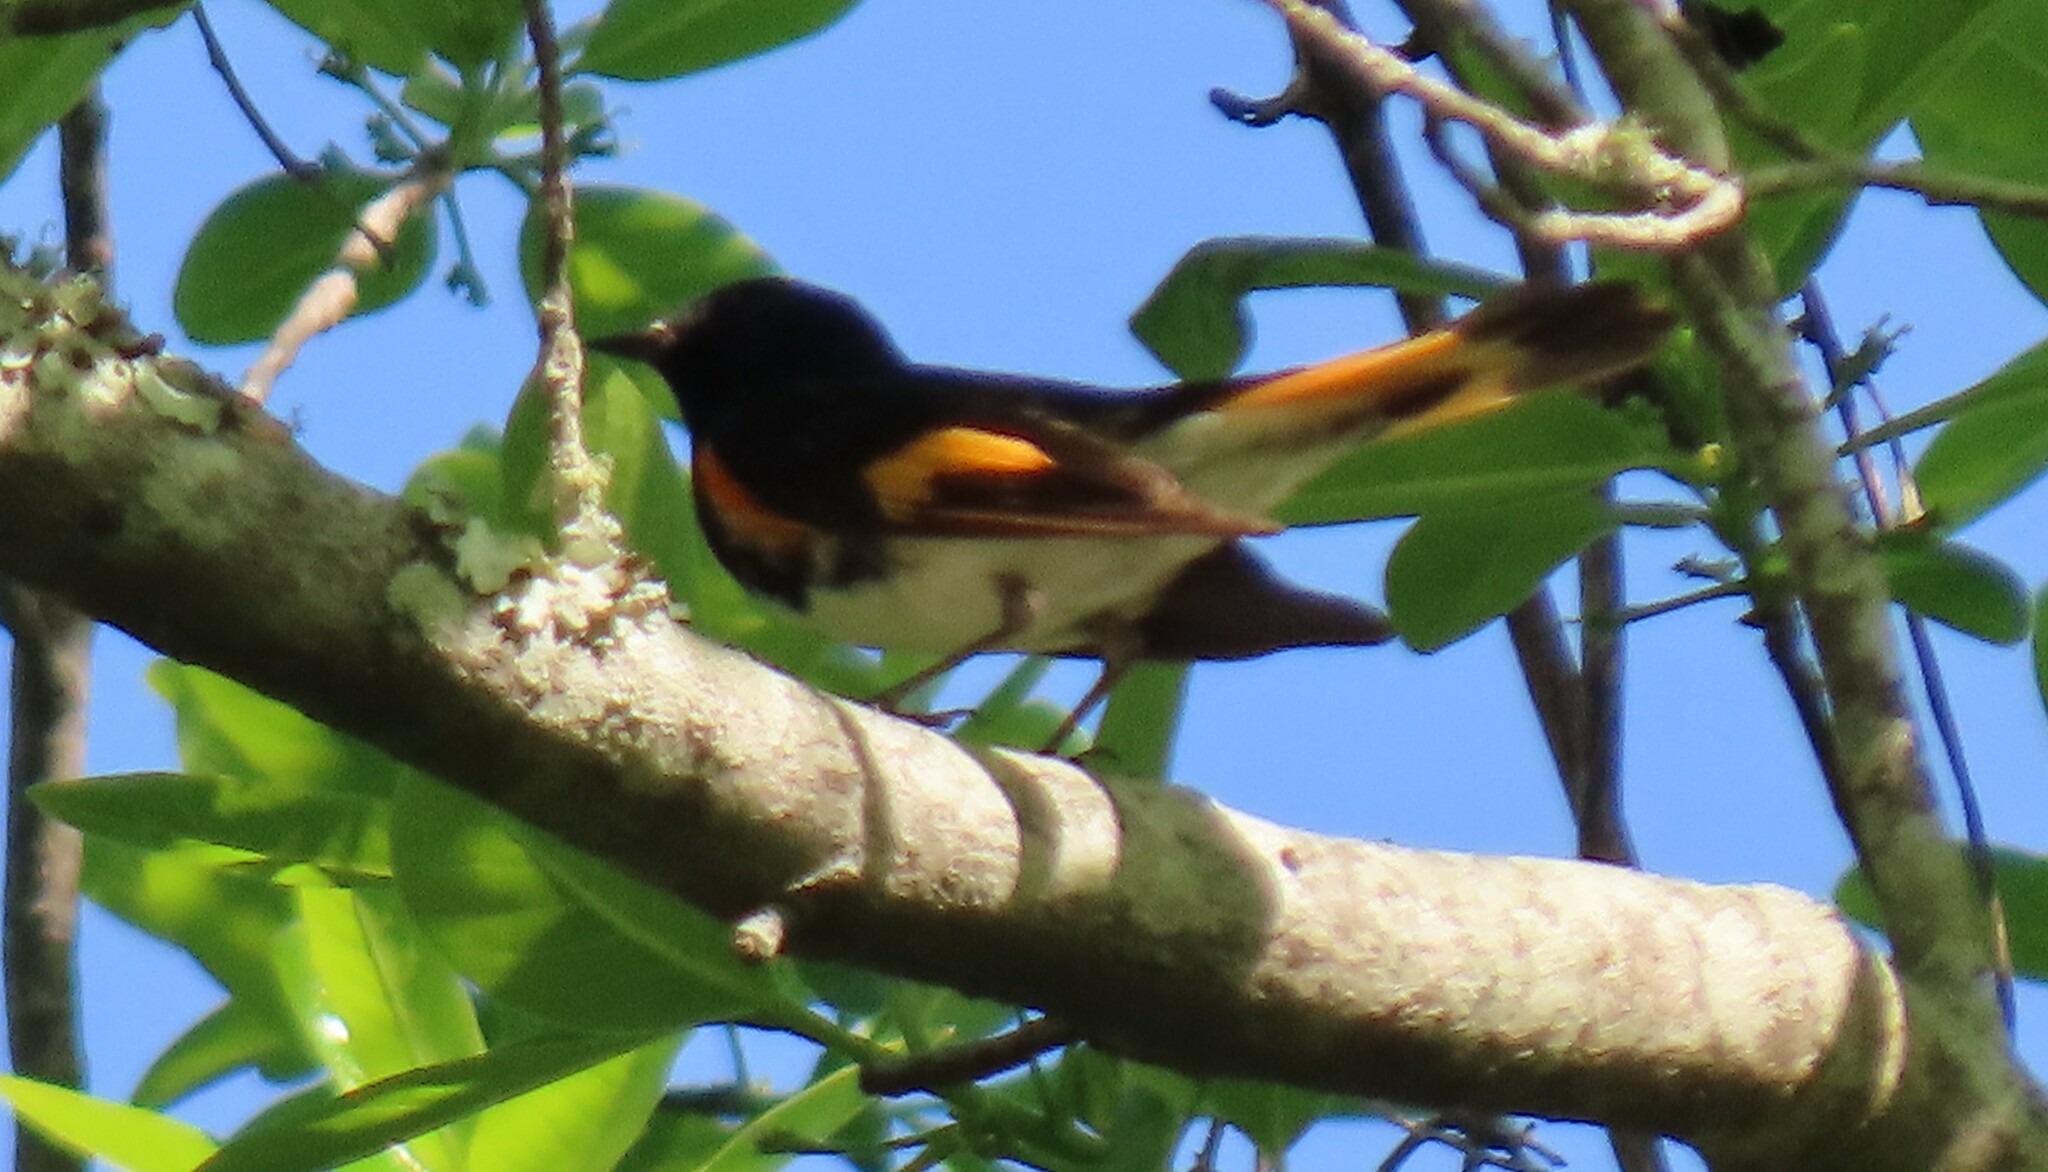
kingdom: Animalia
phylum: Chordata
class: Aves
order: Passeriformes
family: Parulidae
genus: Setophaga
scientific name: Setophaga ruticilla
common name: American redstart
